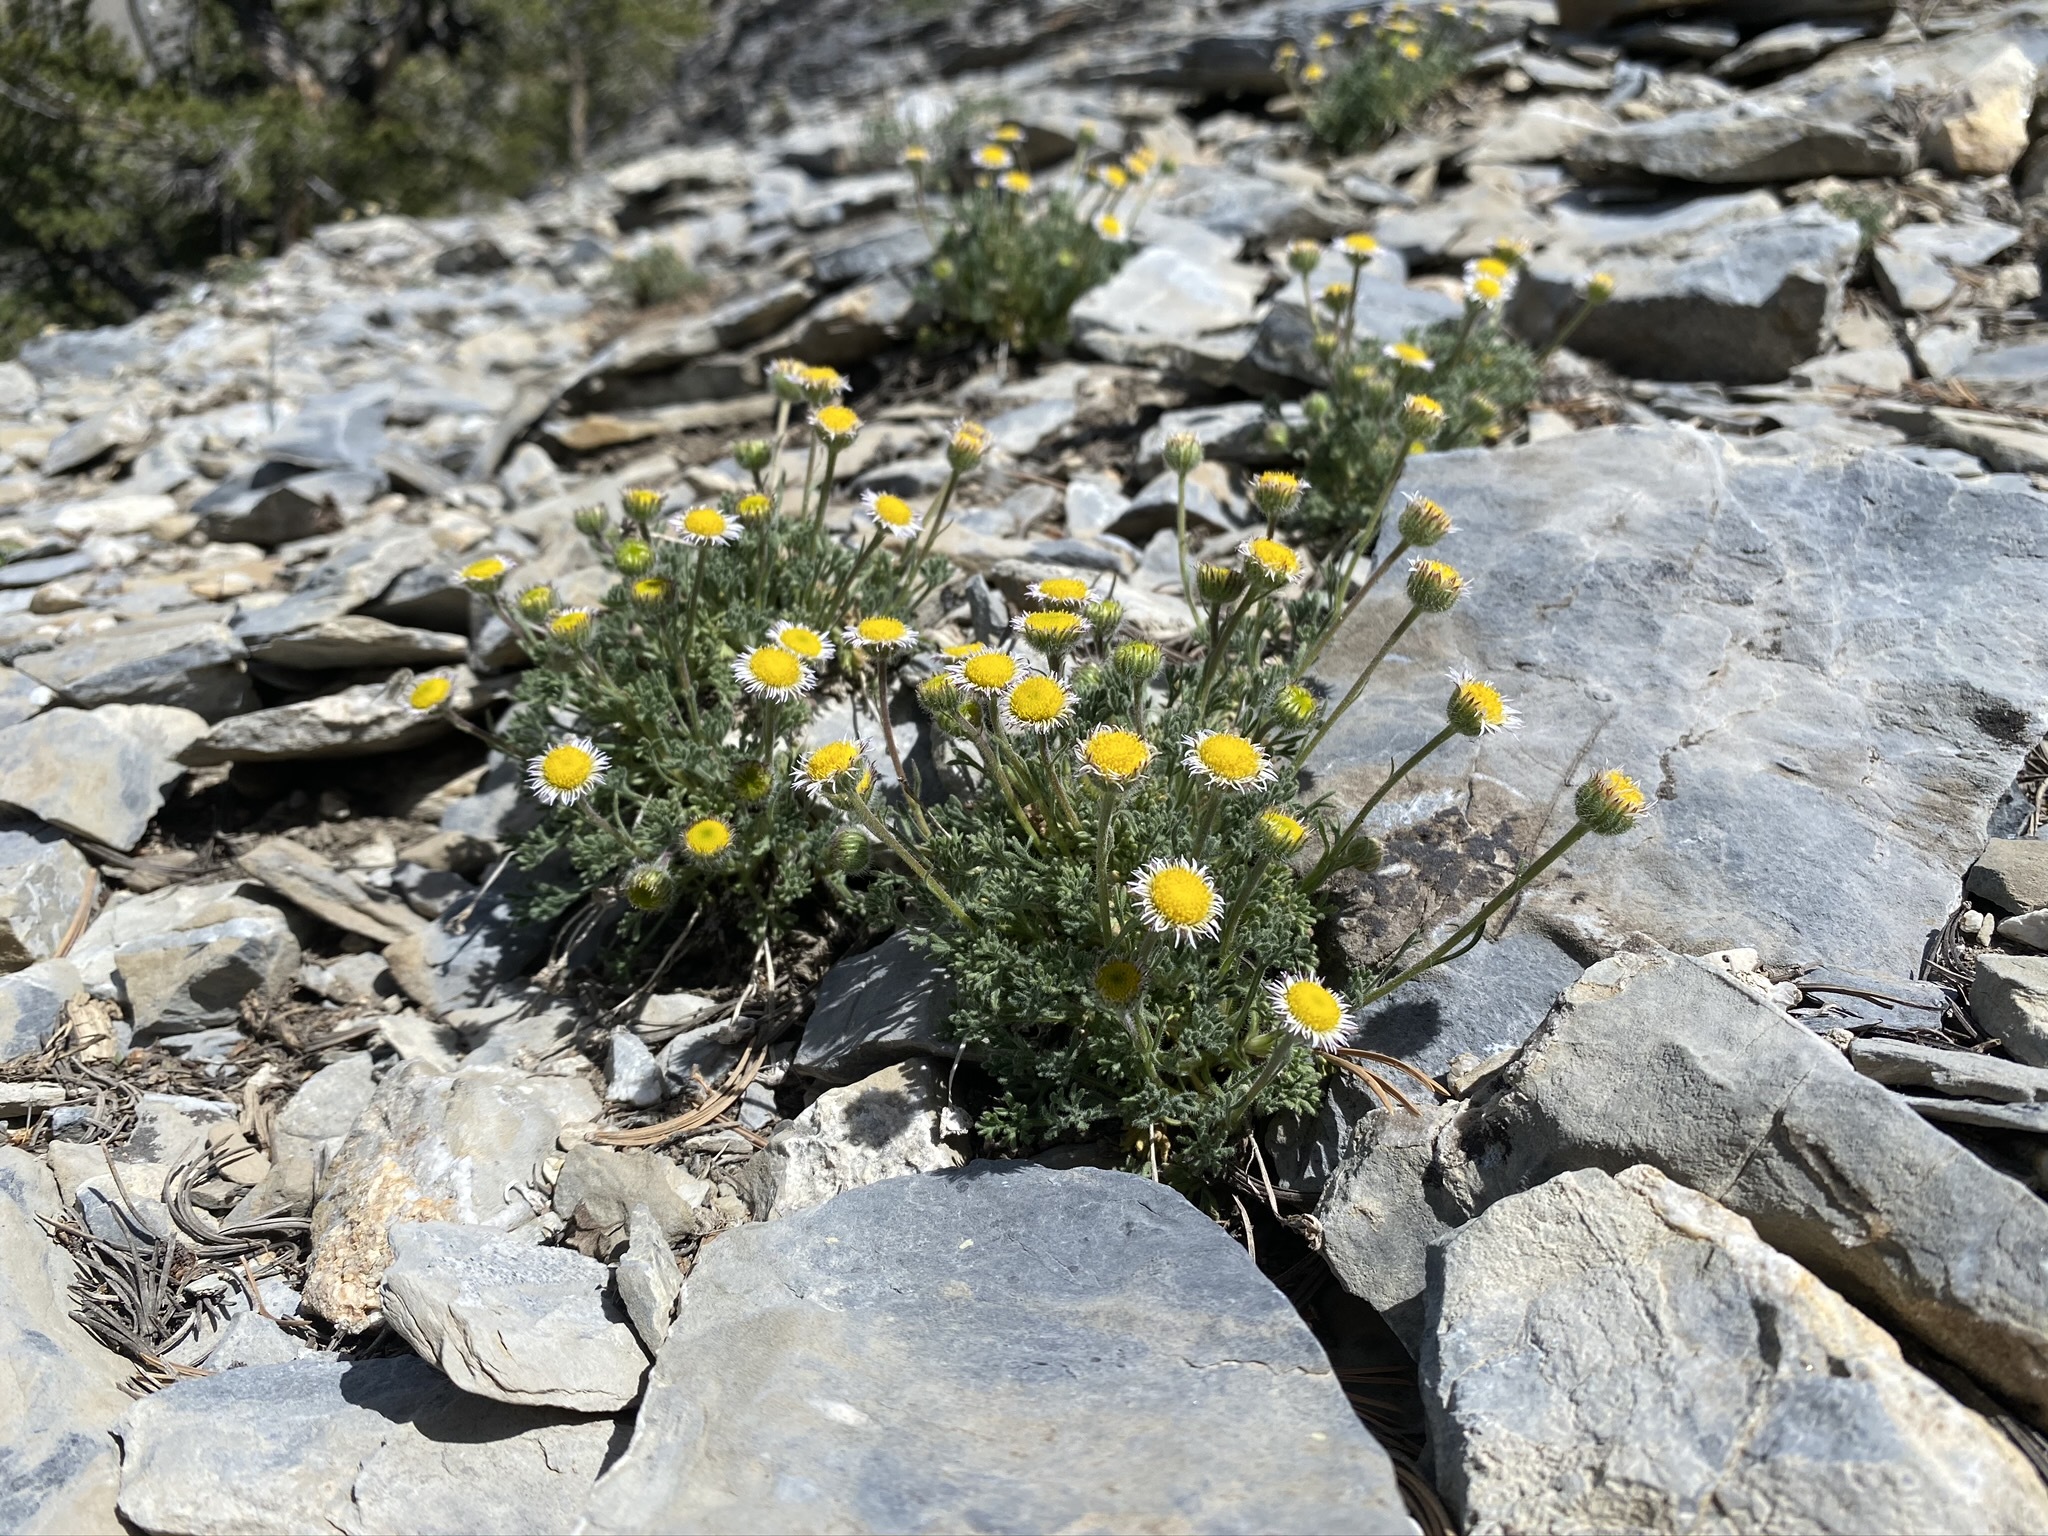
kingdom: Plantae
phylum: Tracheophyta
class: Magnoliopsida
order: Asterales
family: Asteraceae
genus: Erigeron
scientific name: Erigeron compositus
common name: Dwarf mountain fleabane
